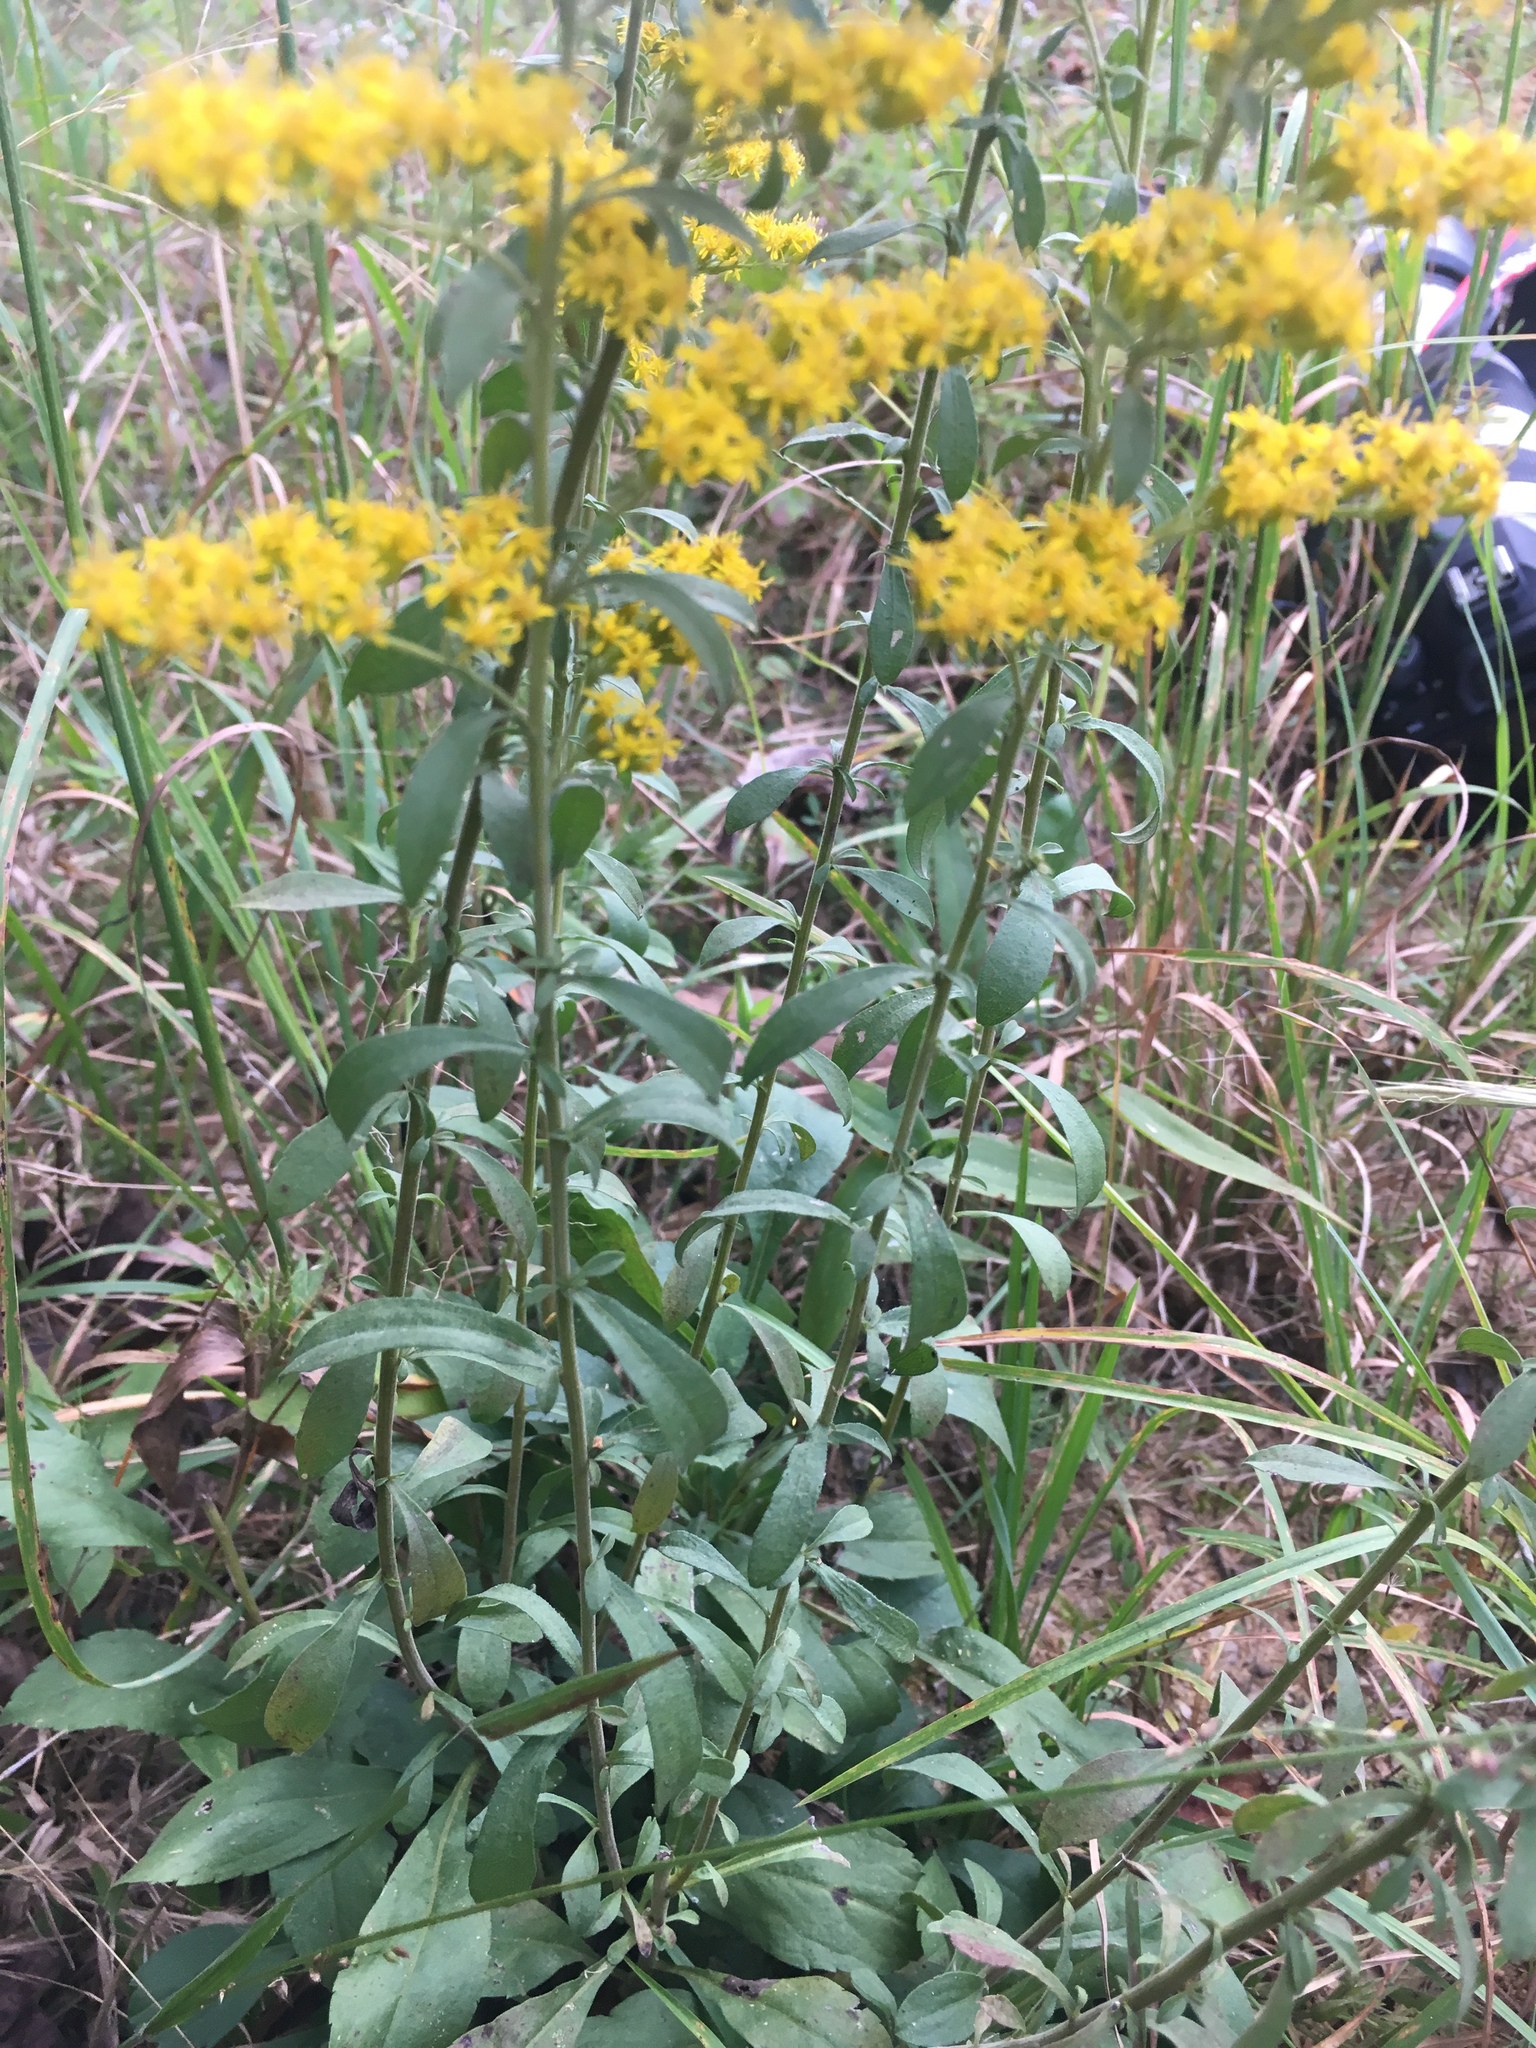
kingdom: Plantae
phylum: Tracheophyta
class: Magnoliopsida
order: Asterales
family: Asteraceae
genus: Solidago
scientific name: Solidago nemoralis
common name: Grey goldenrod
